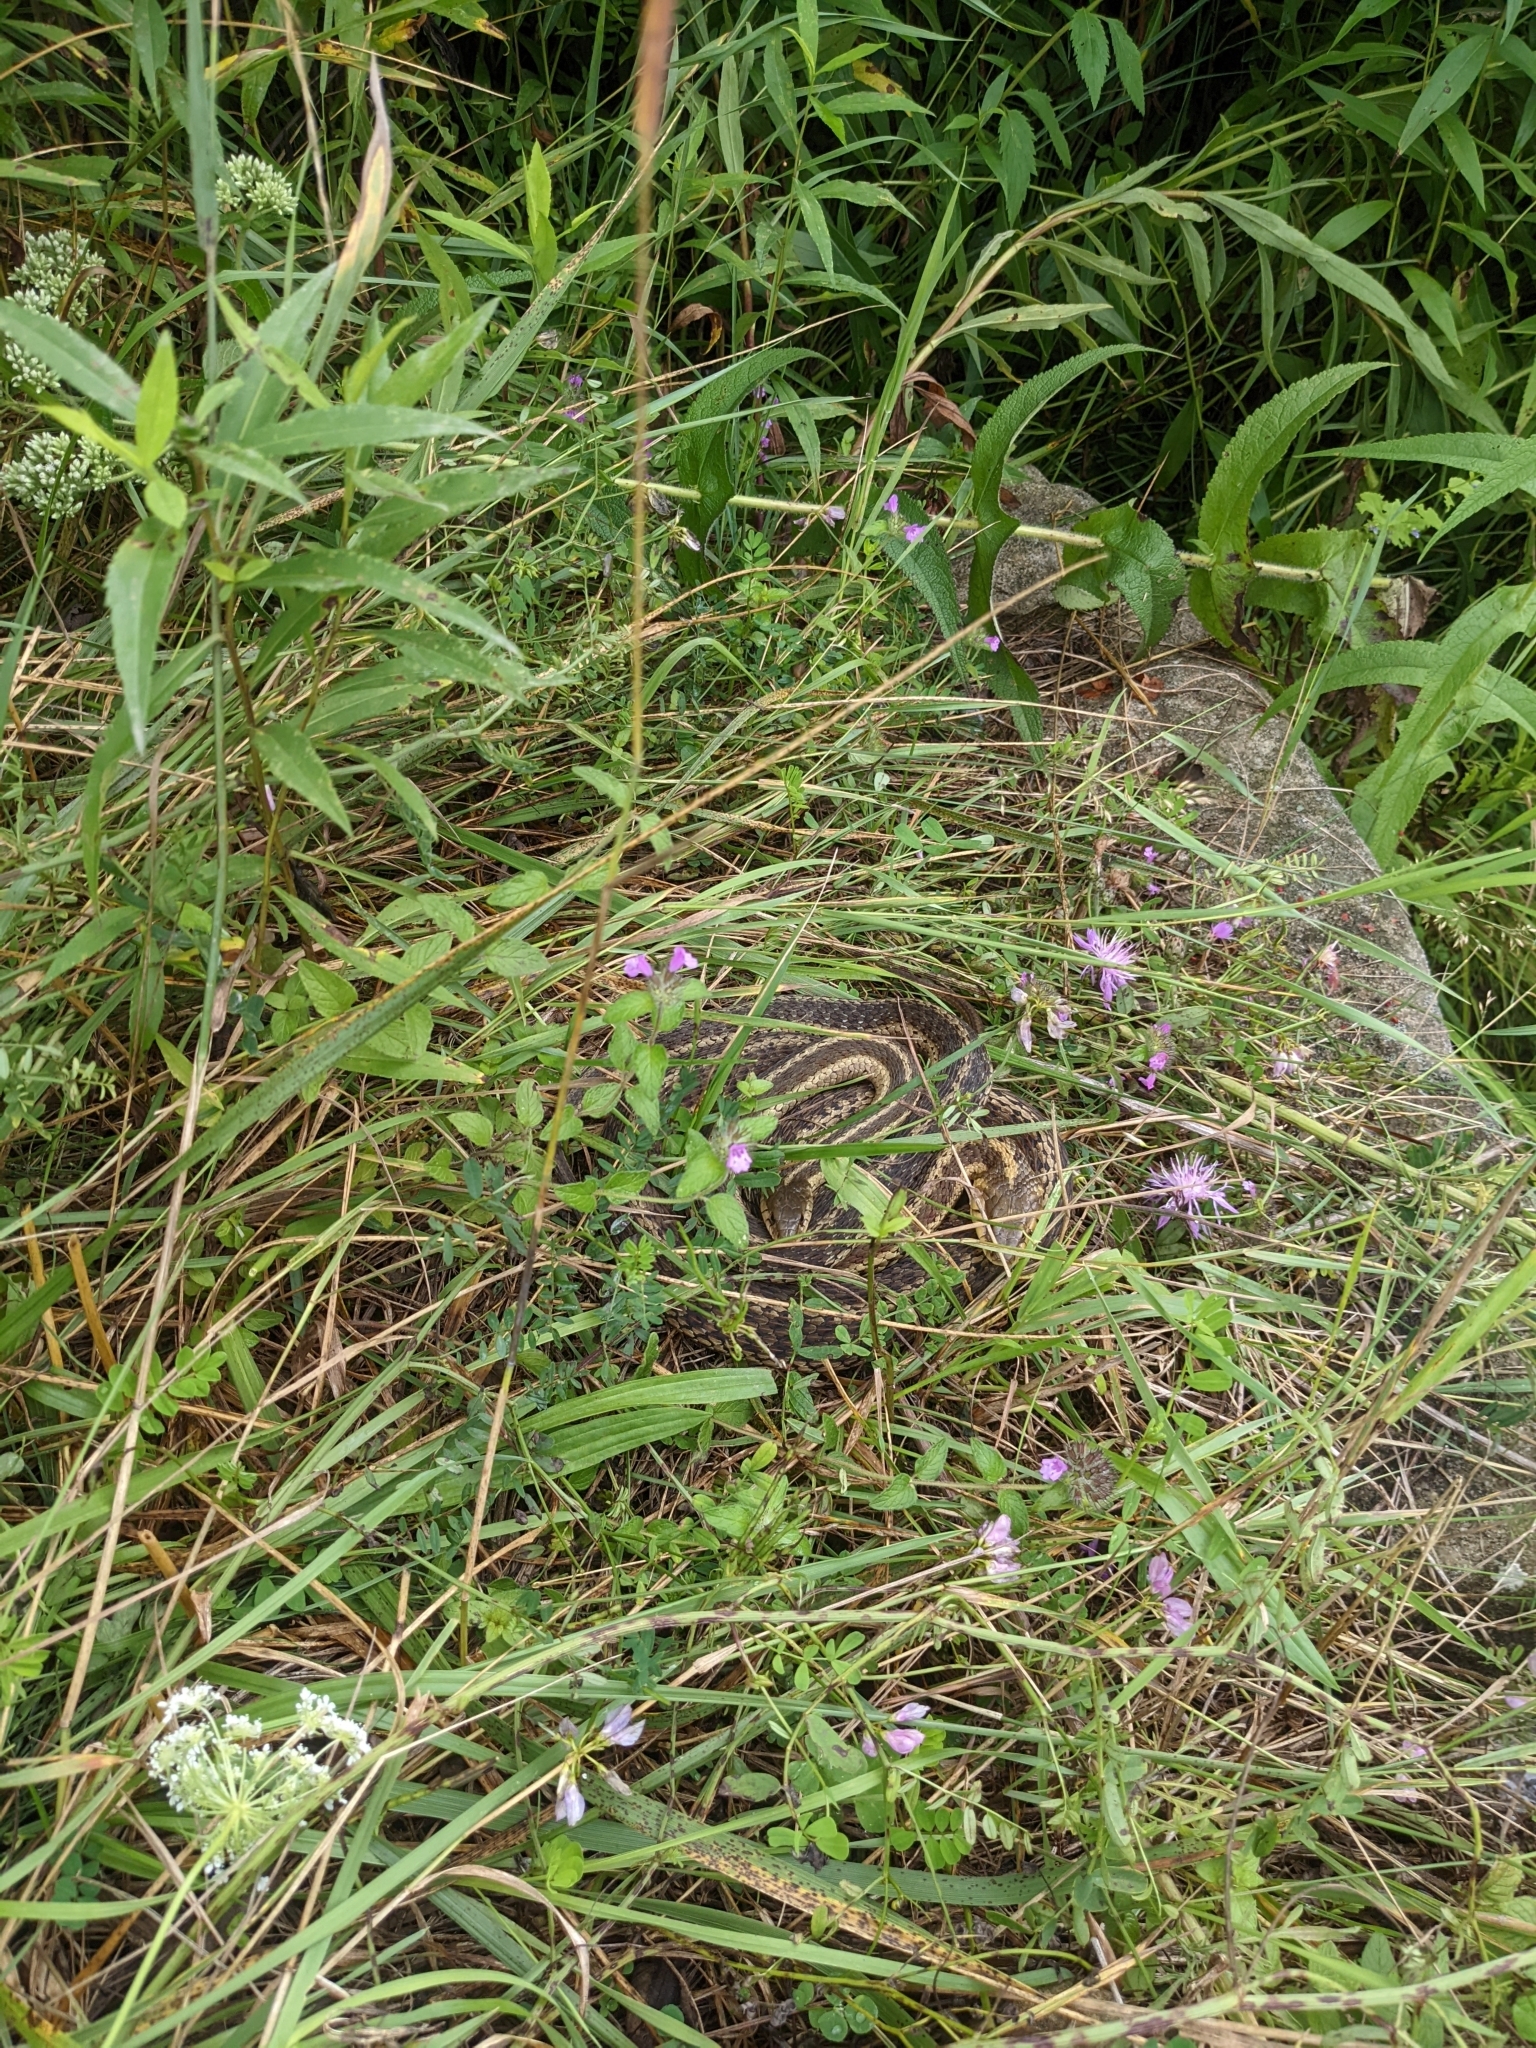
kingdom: Animalia
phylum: Chordata
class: Squamata
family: Colubridae
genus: Thamnophis
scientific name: Thamnophis sirtalis
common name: Common garter snake
